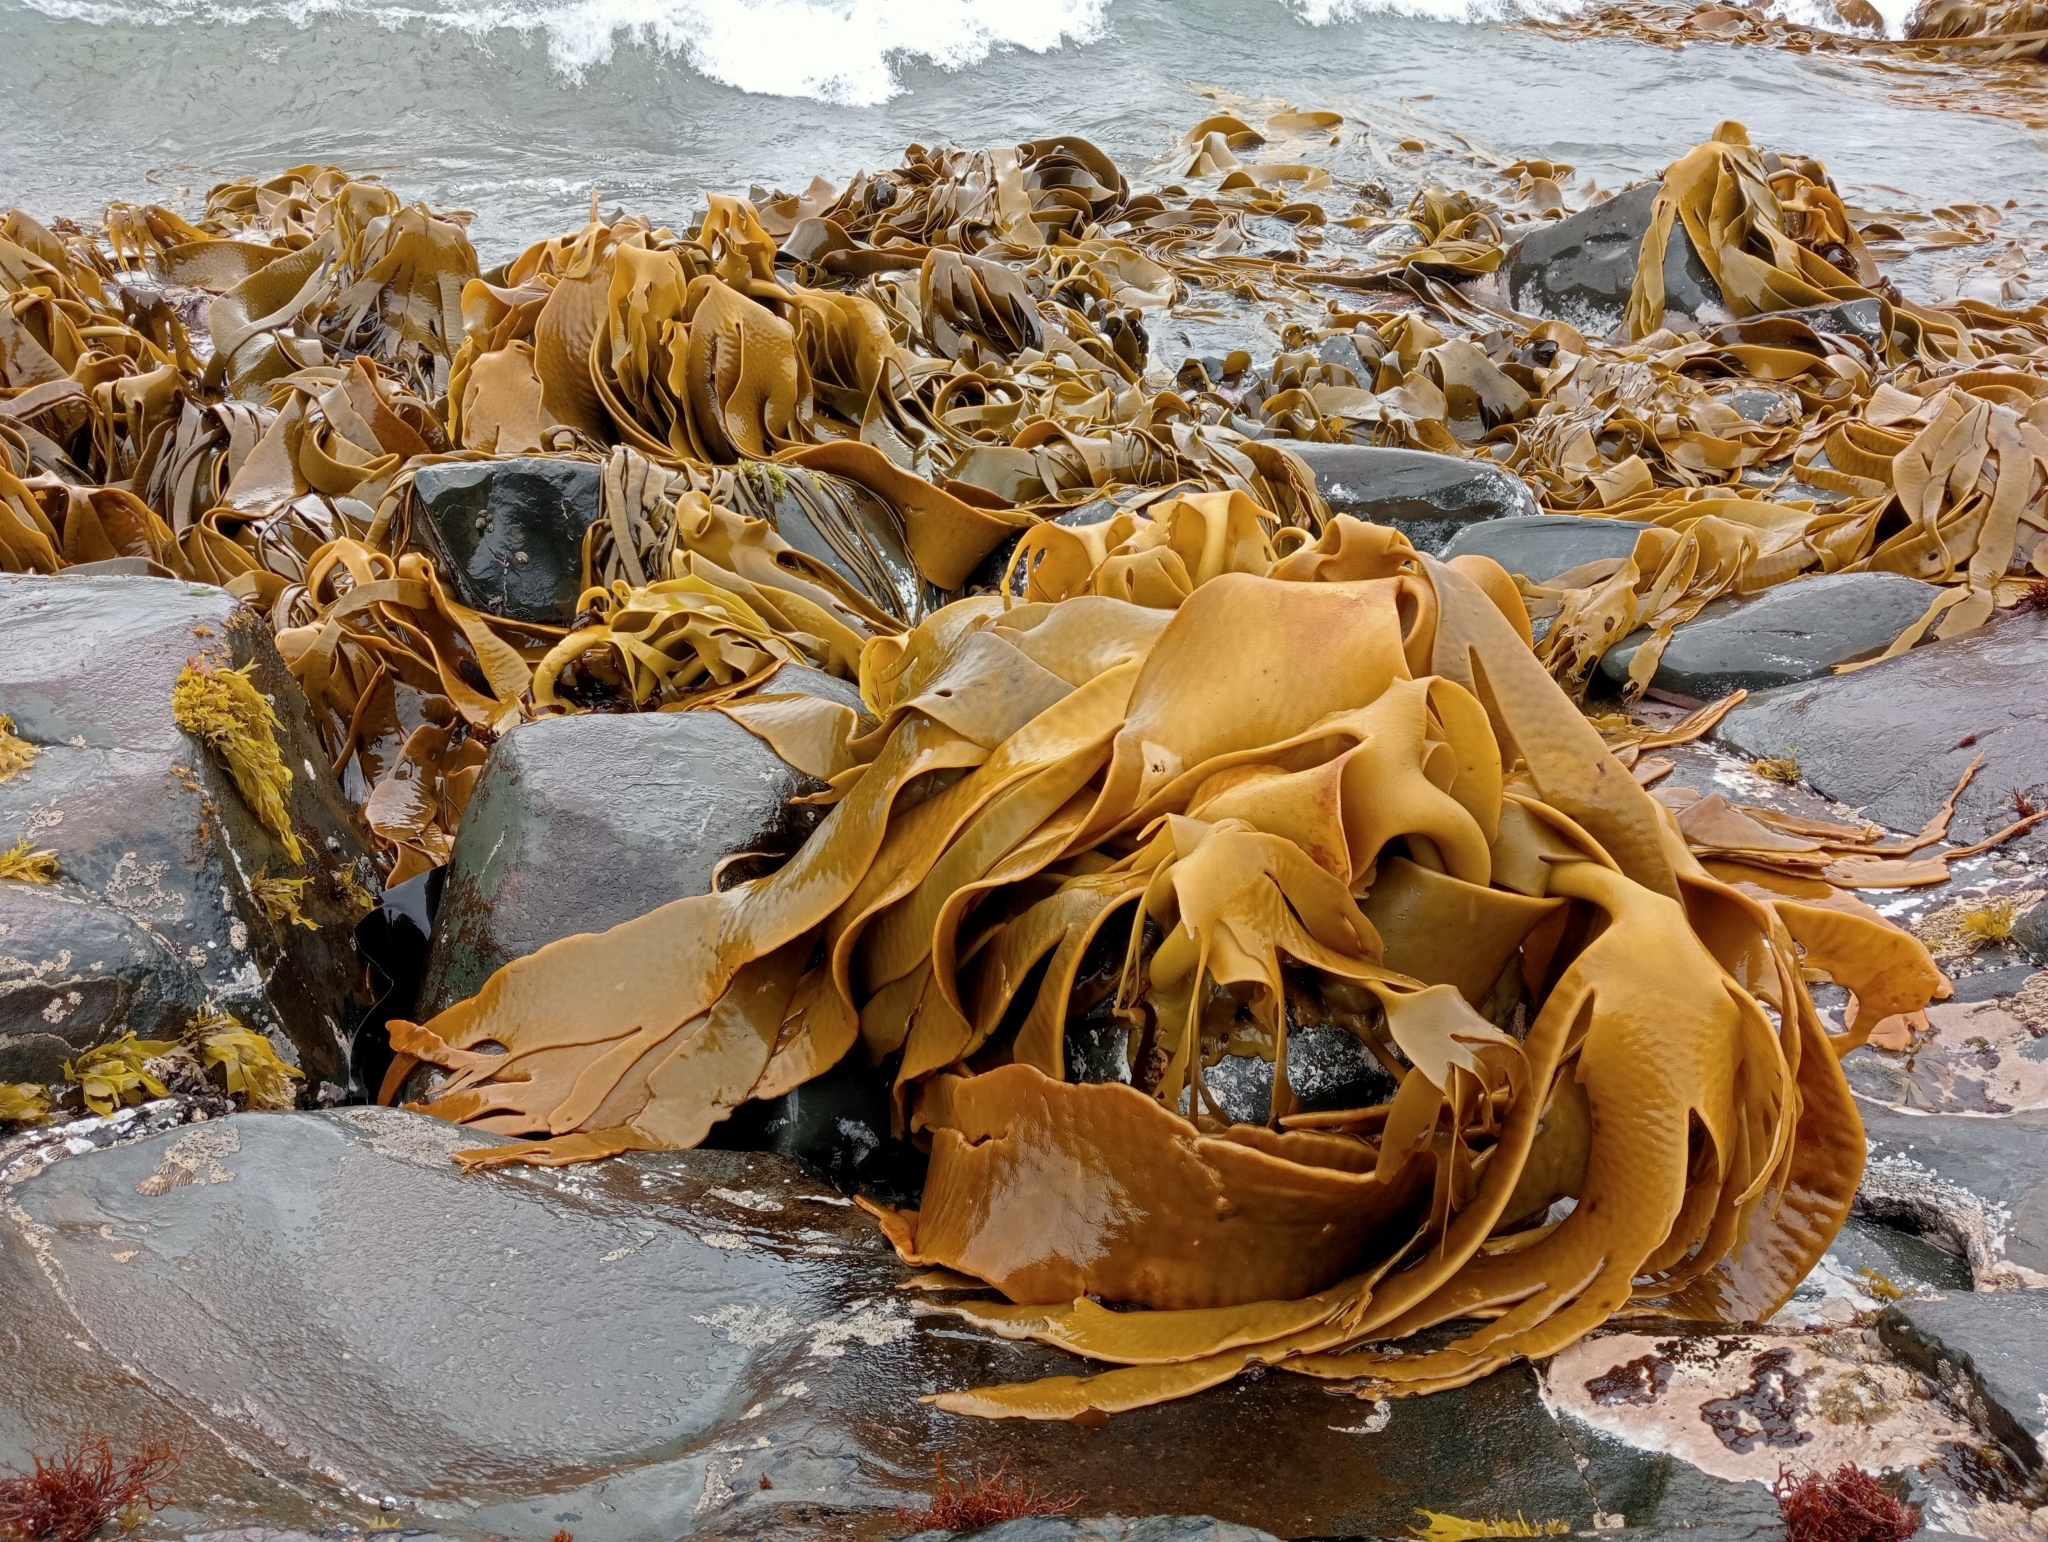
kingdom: Chromista
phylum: Ochrophyta
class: Phaeophyceae
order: Fucales
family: Durvillaeaceae
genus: Durvillaea
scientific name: Durvillaea poha
